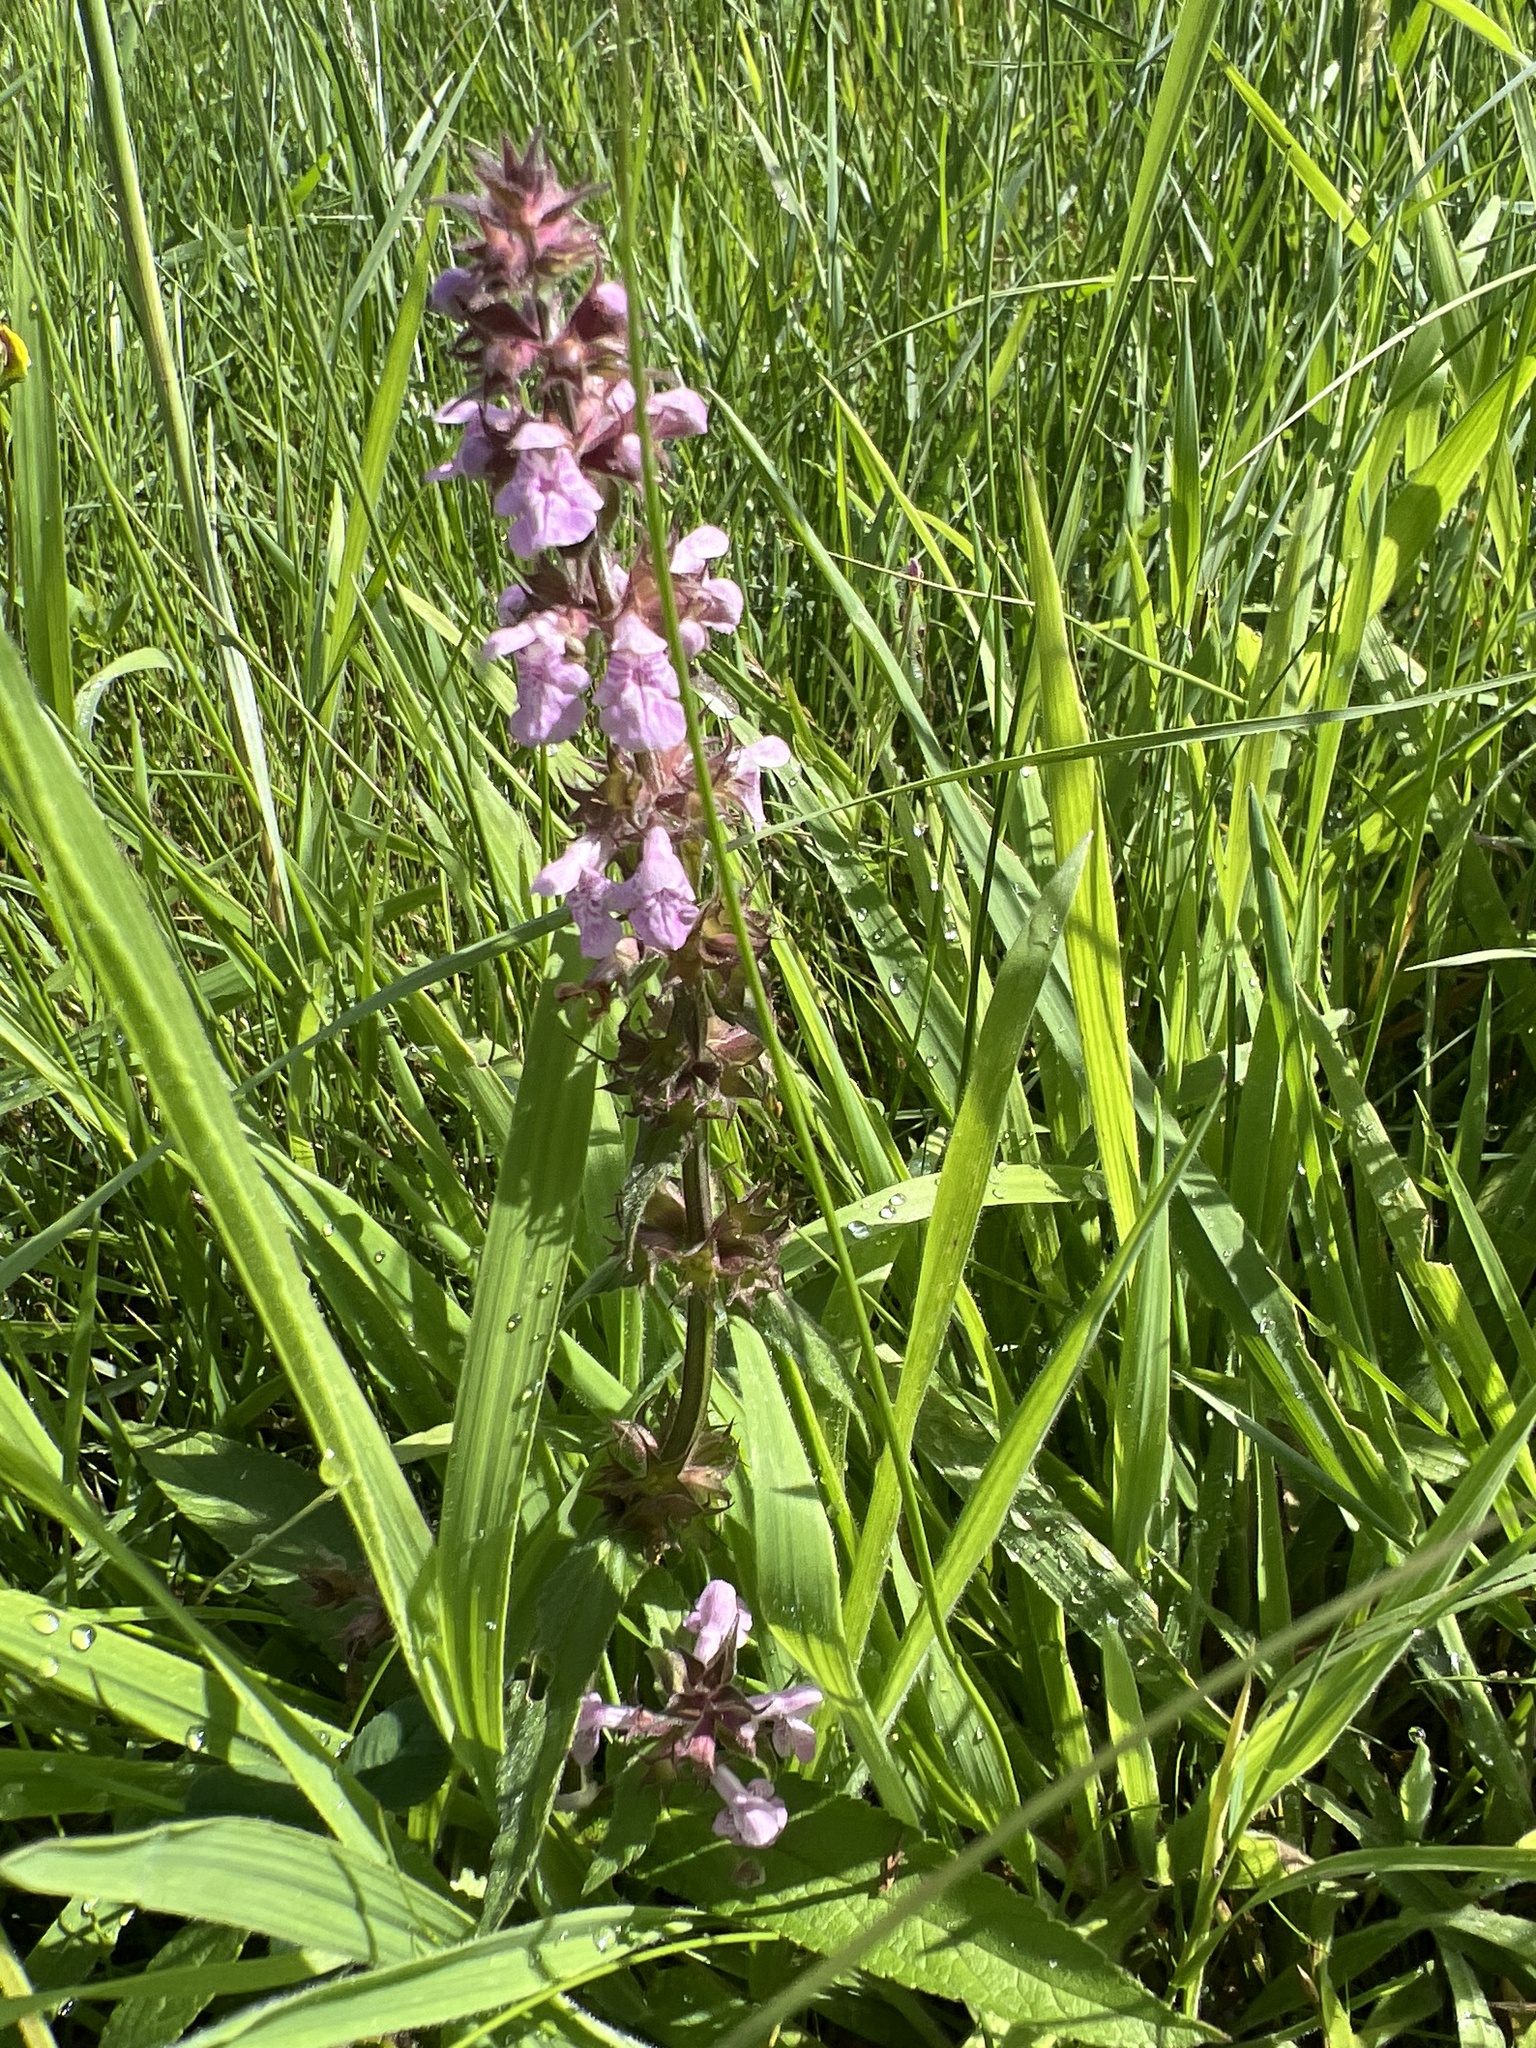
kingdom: Plantae
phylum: Tracheophyta
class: Magnoliopsida
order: Lamiales
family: Lamiaceae
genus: Stachys
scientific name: Stachys palustris
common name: Marsh woundwort
